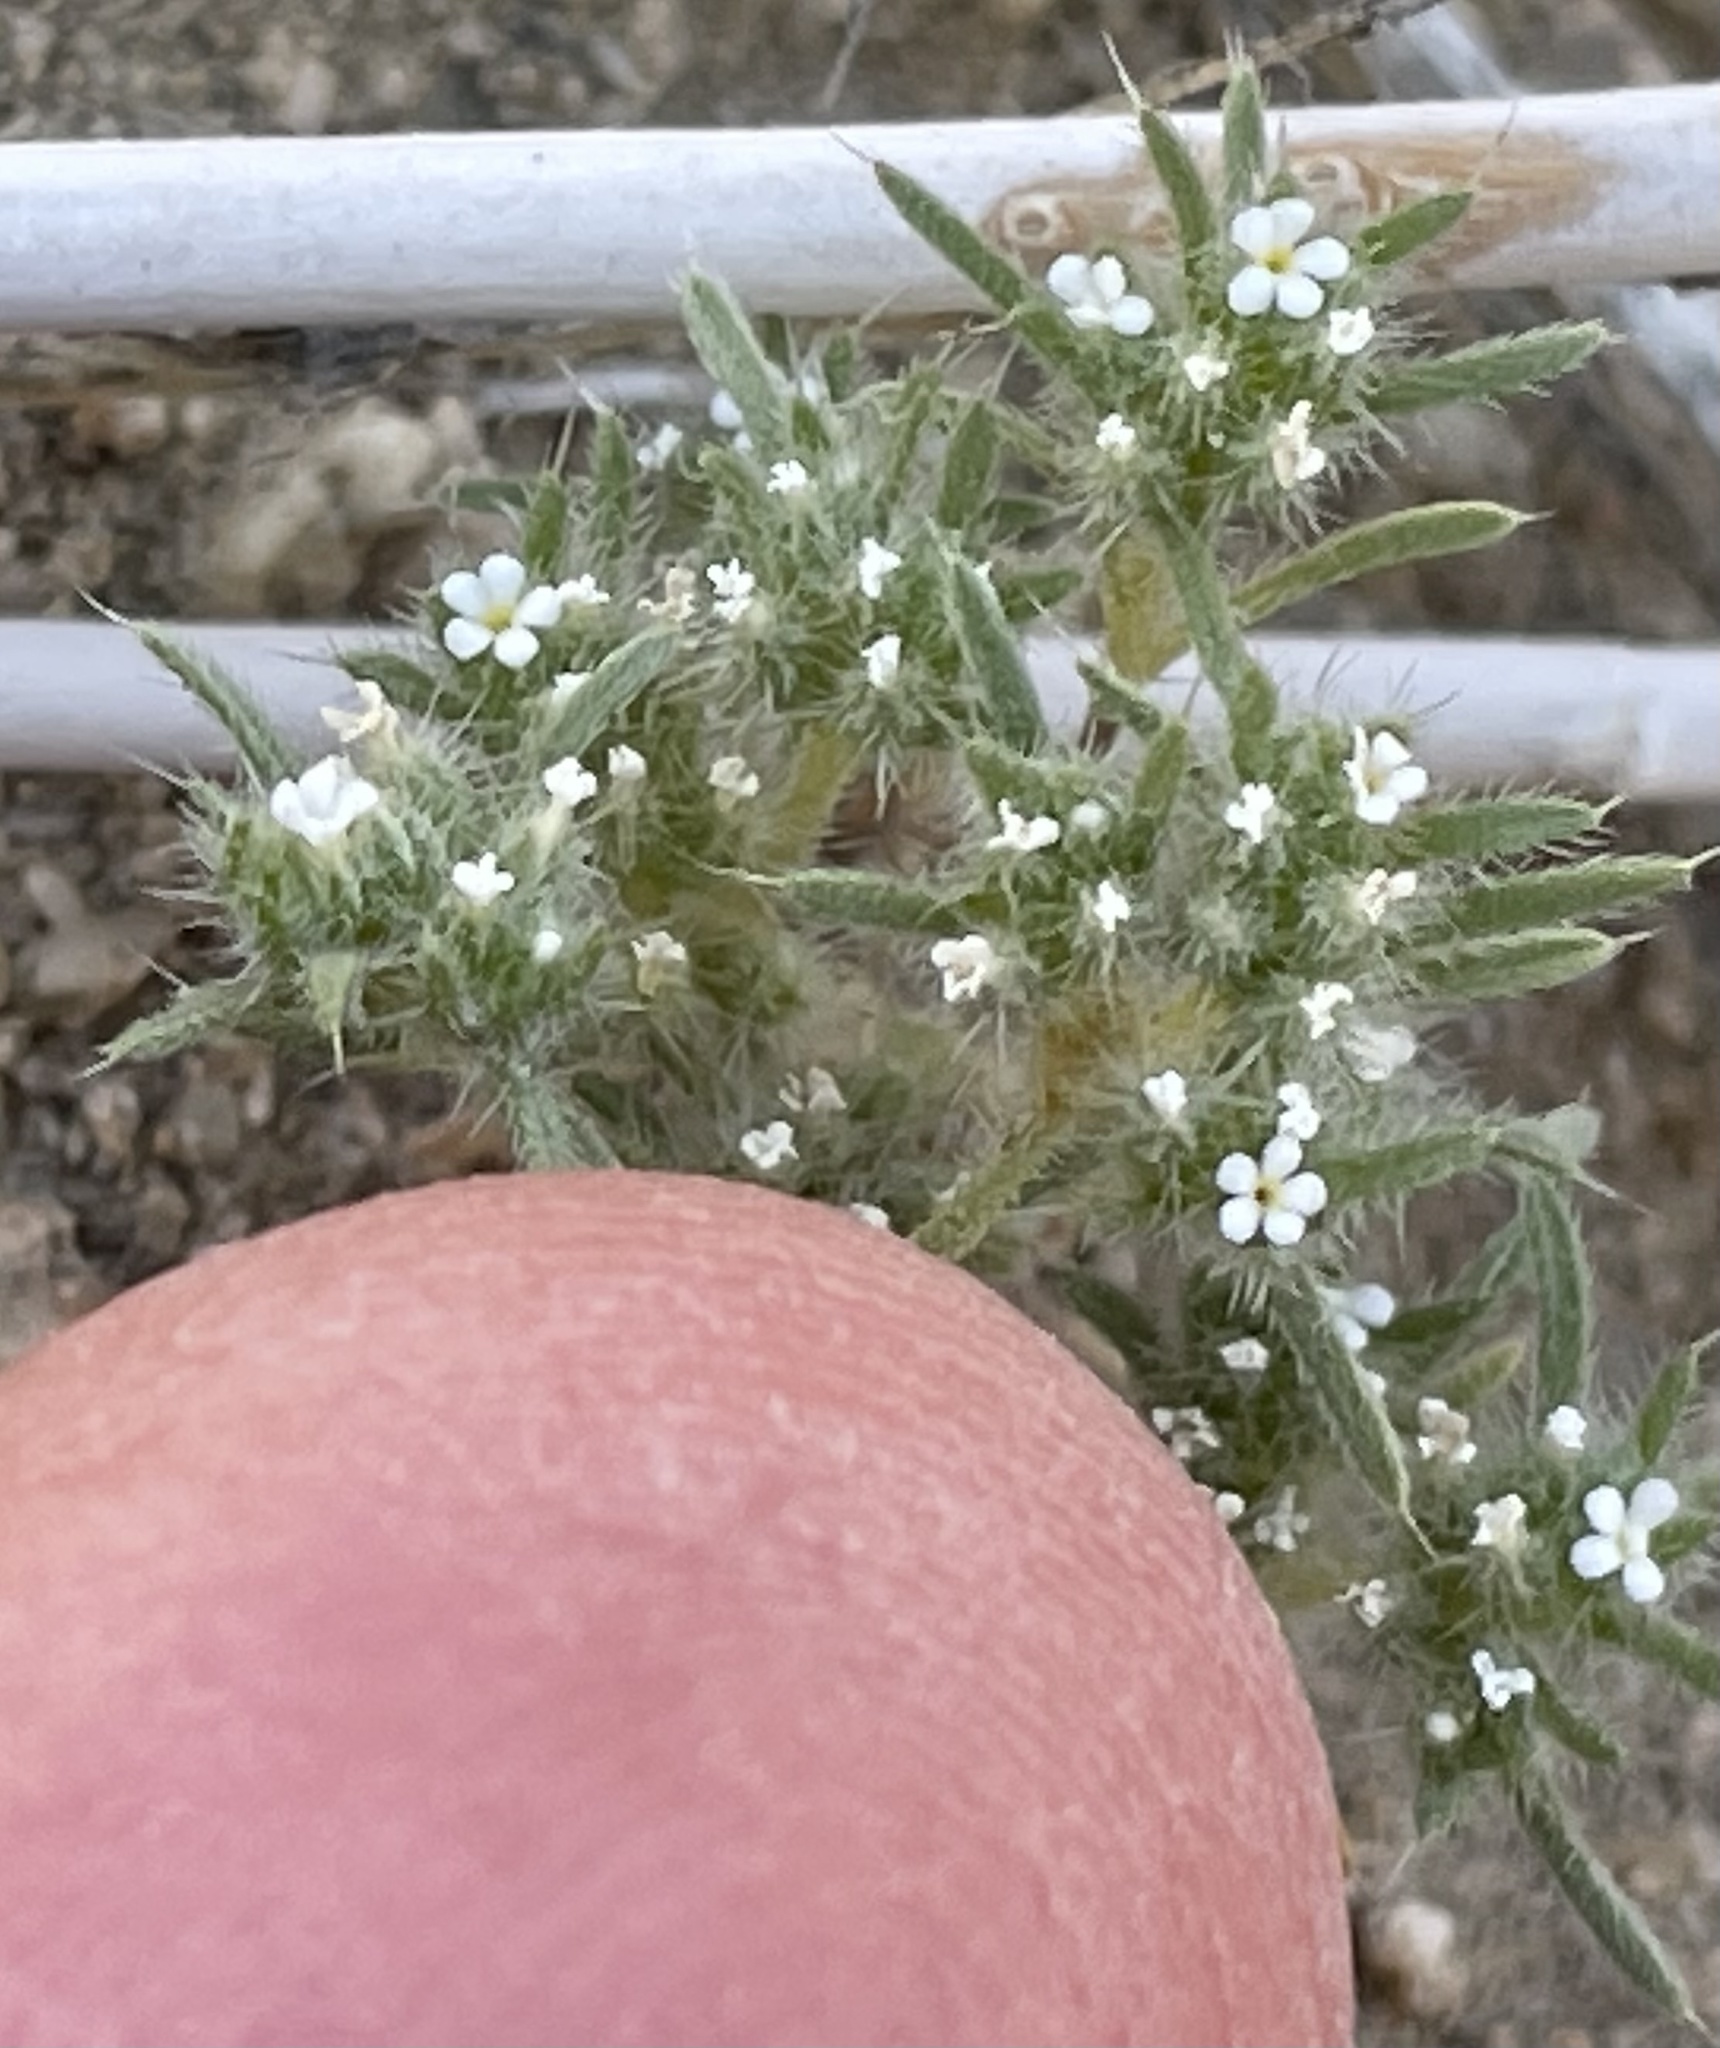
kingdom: Plantae
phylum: Tracheophyta
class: Magnoliopsida
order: Boraginales
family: Boraginaceae
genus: Greeneocharis
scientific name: Greeneocharis circumscissa
